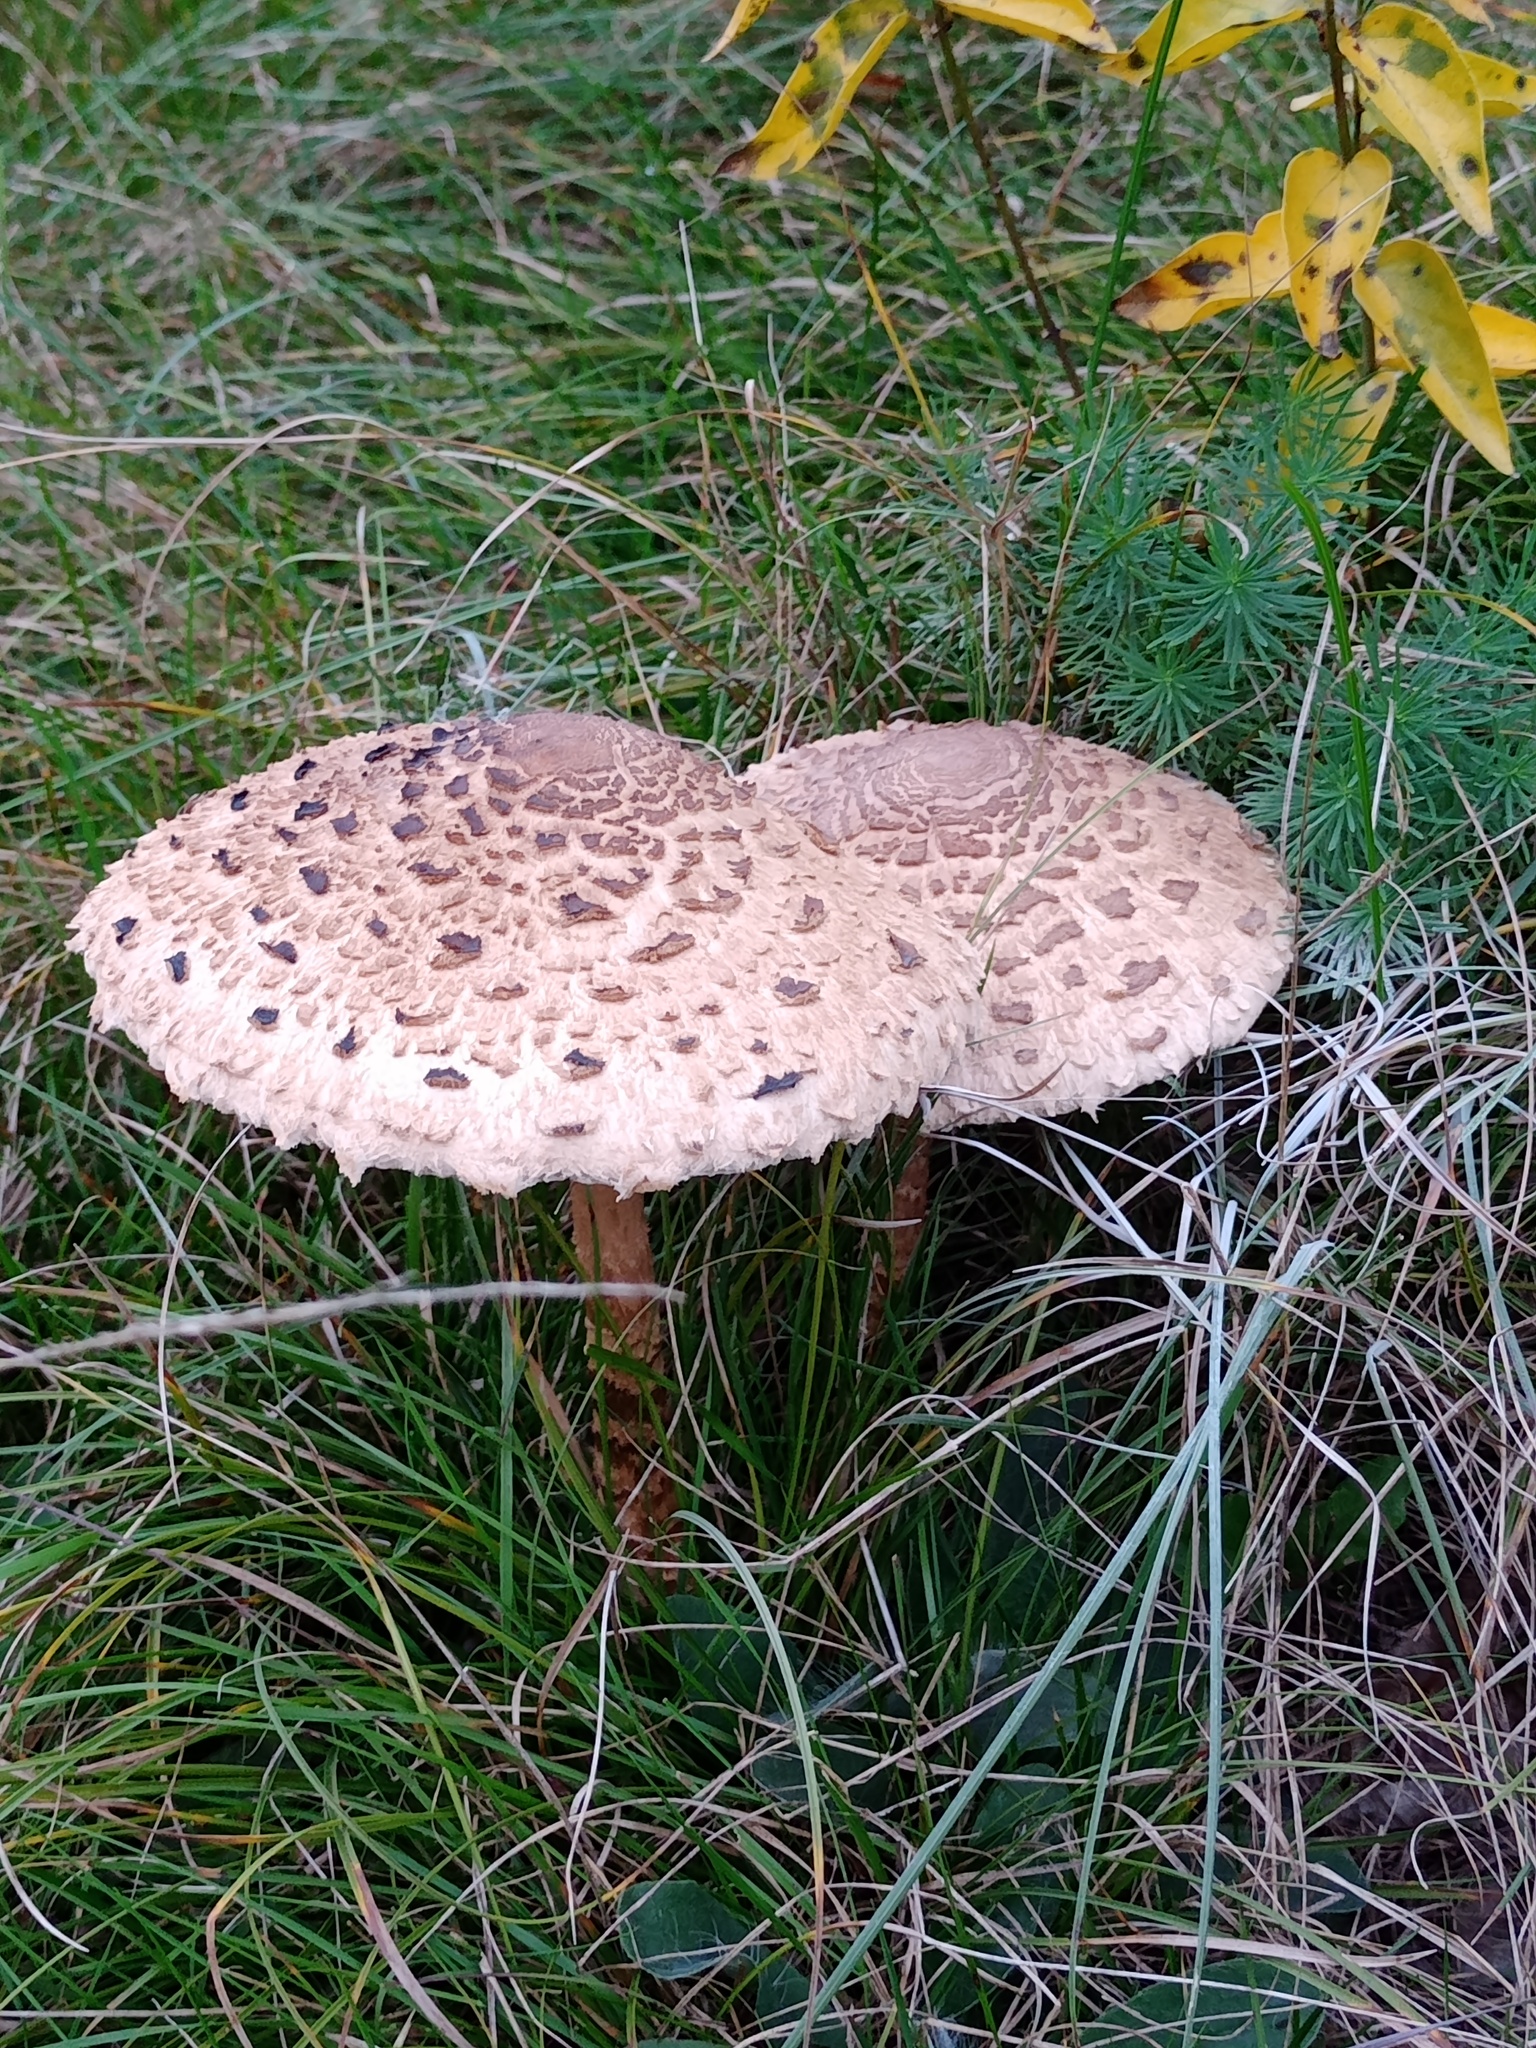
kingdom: Fungi
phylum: Basidiomycota
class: Agaricomycetes
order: Agaricales
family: Agaricaceae
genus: Macrolepiota
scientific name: Macrolepiota procera
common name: Parasol
